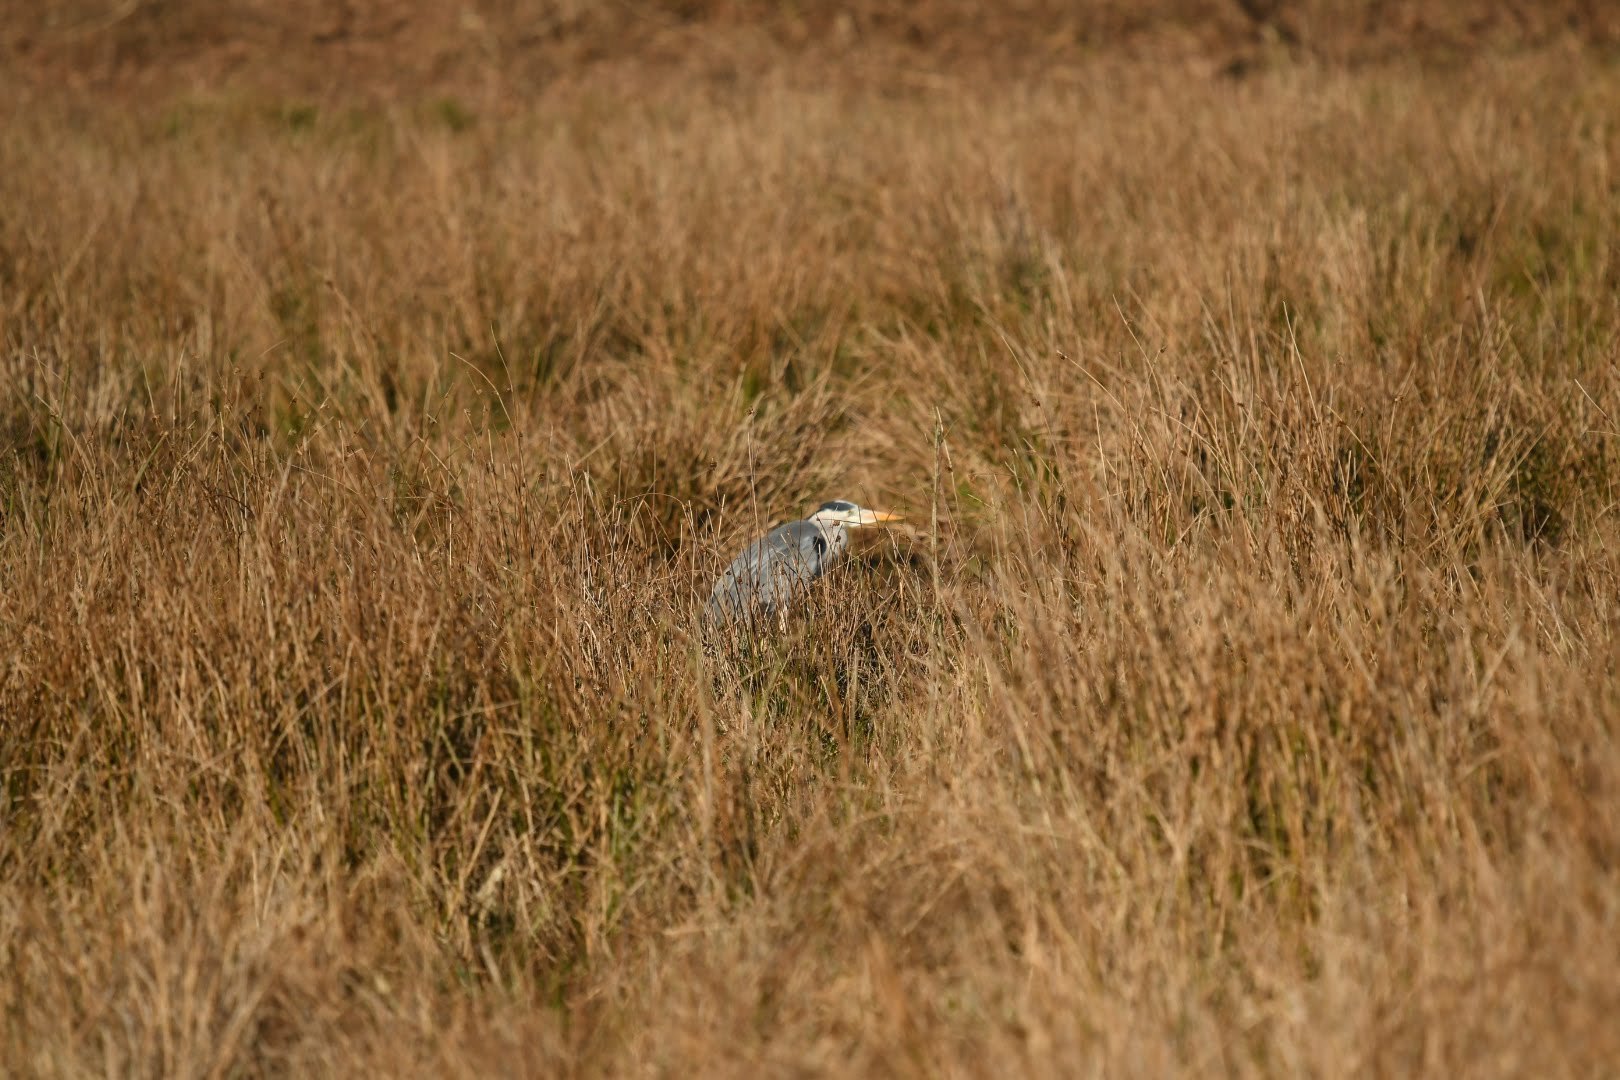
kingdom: Animalia
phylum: Chordata
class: Aves
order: Pelecaniformes
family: Ardeidae
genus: Ardea
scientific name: Ardea cinerea
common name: Grey heron
